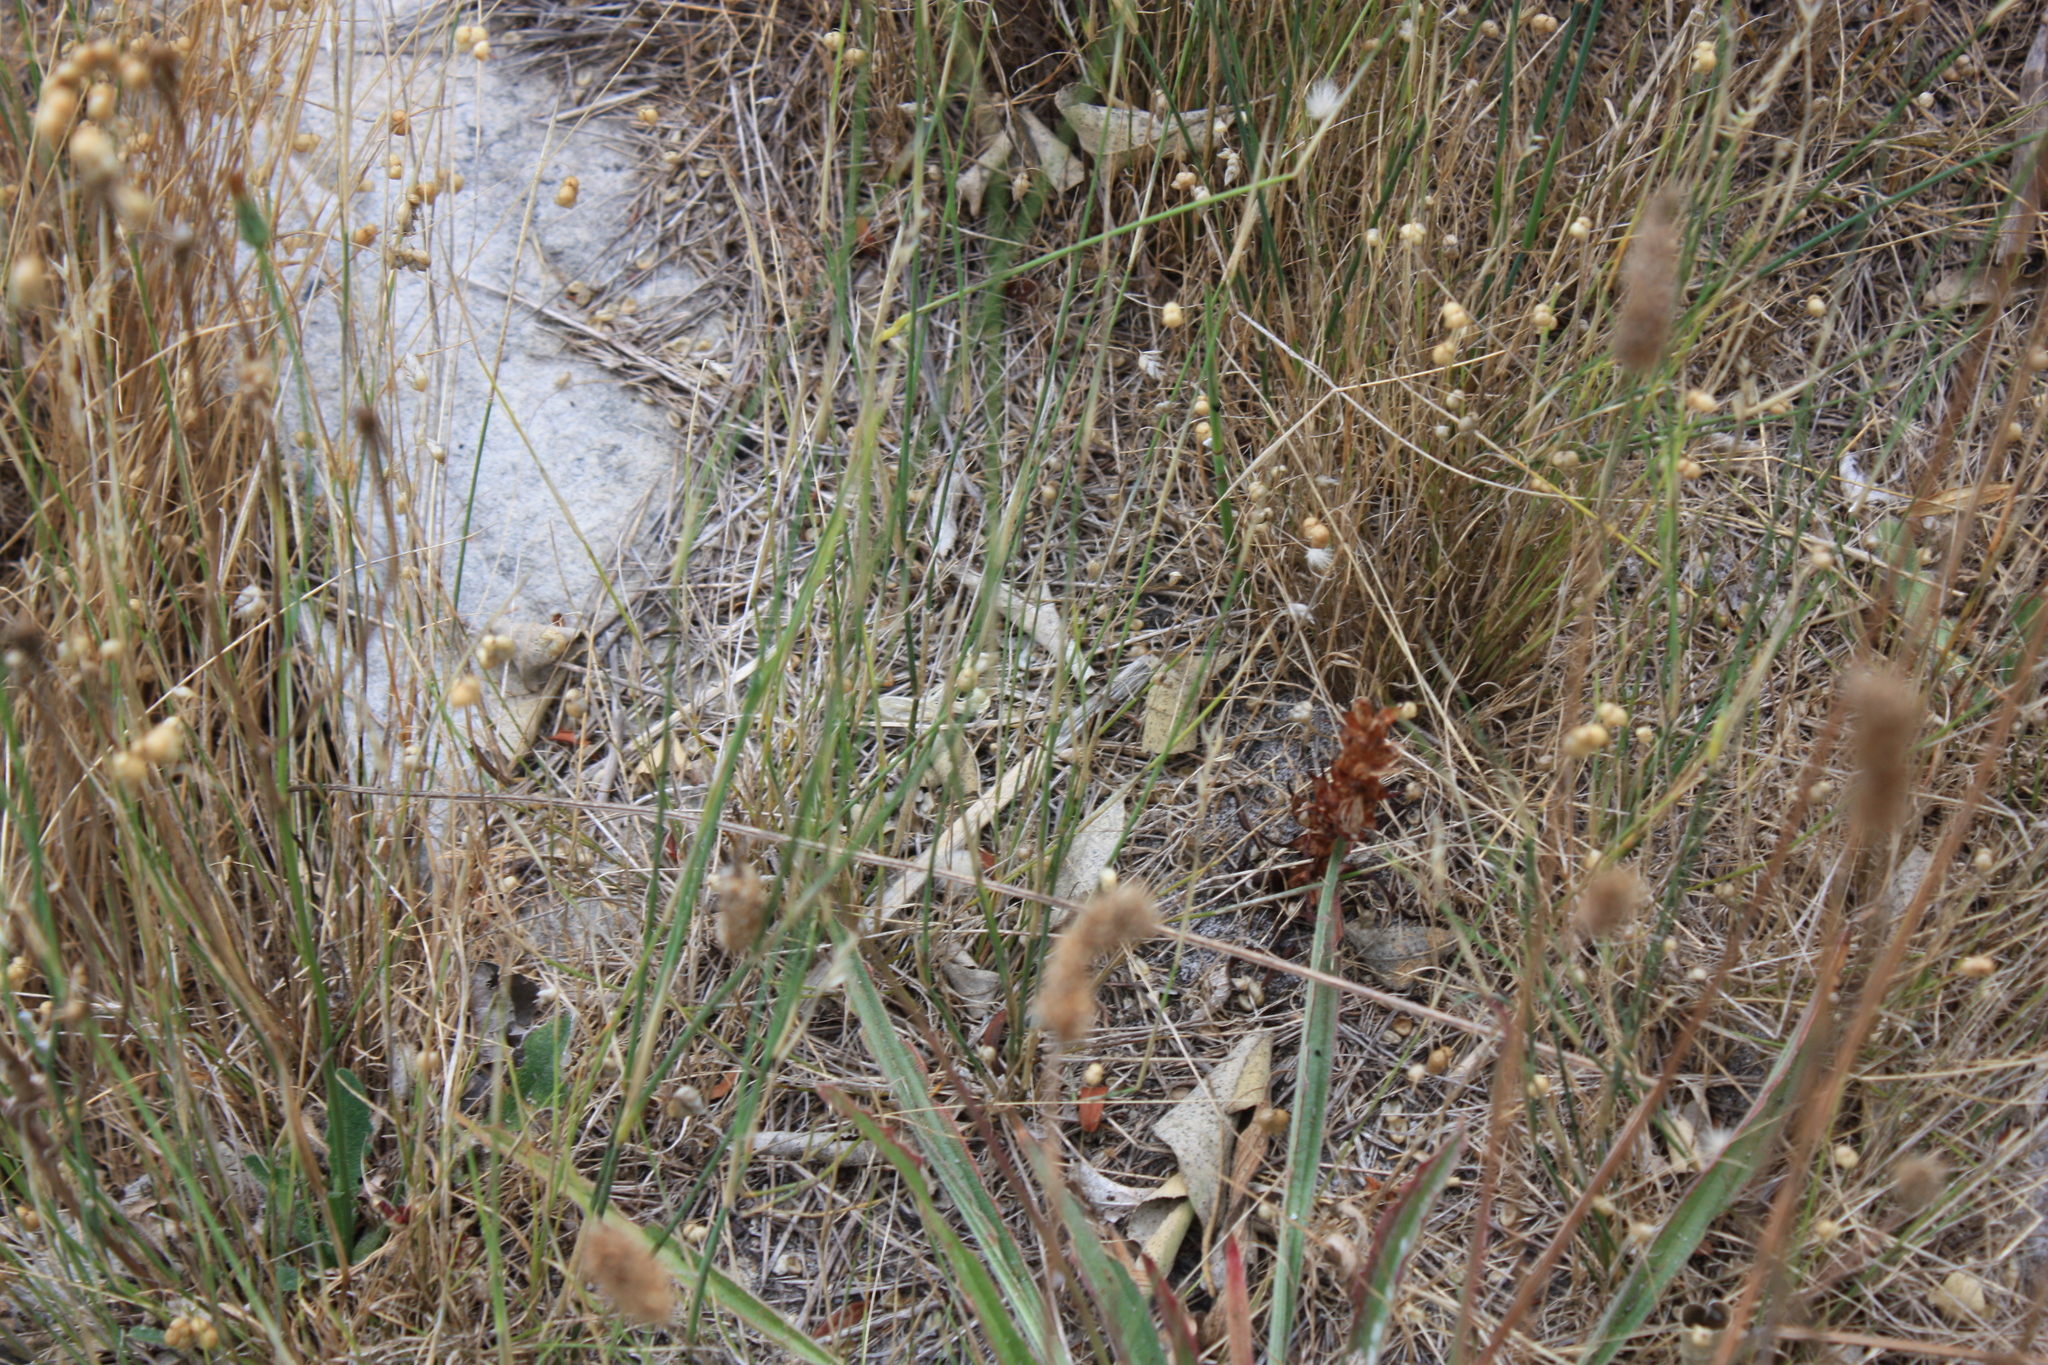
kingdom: Plantae
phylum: Tracheophyta
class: Liliopsida
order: Asparagales
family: Orchidaceae
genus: Disa
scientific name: Disa bracteata
